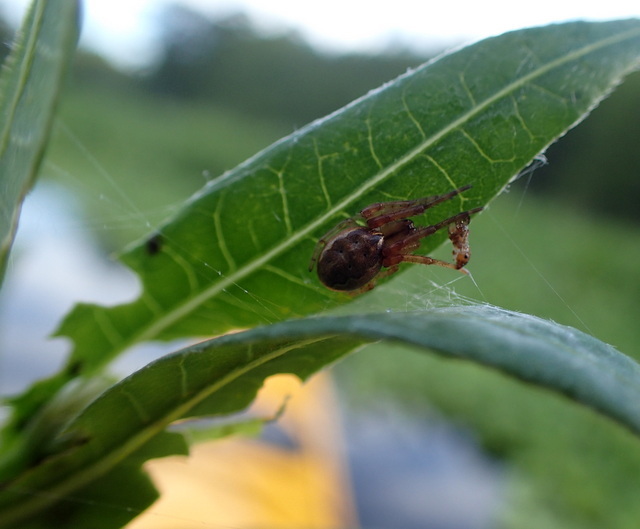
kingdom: Animalia
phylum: Arthropoda
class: Arachnida
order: Araneae
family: Araneidae
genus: Larinioides
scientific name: Larinioides cornutus
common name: Furrow orbweaver
